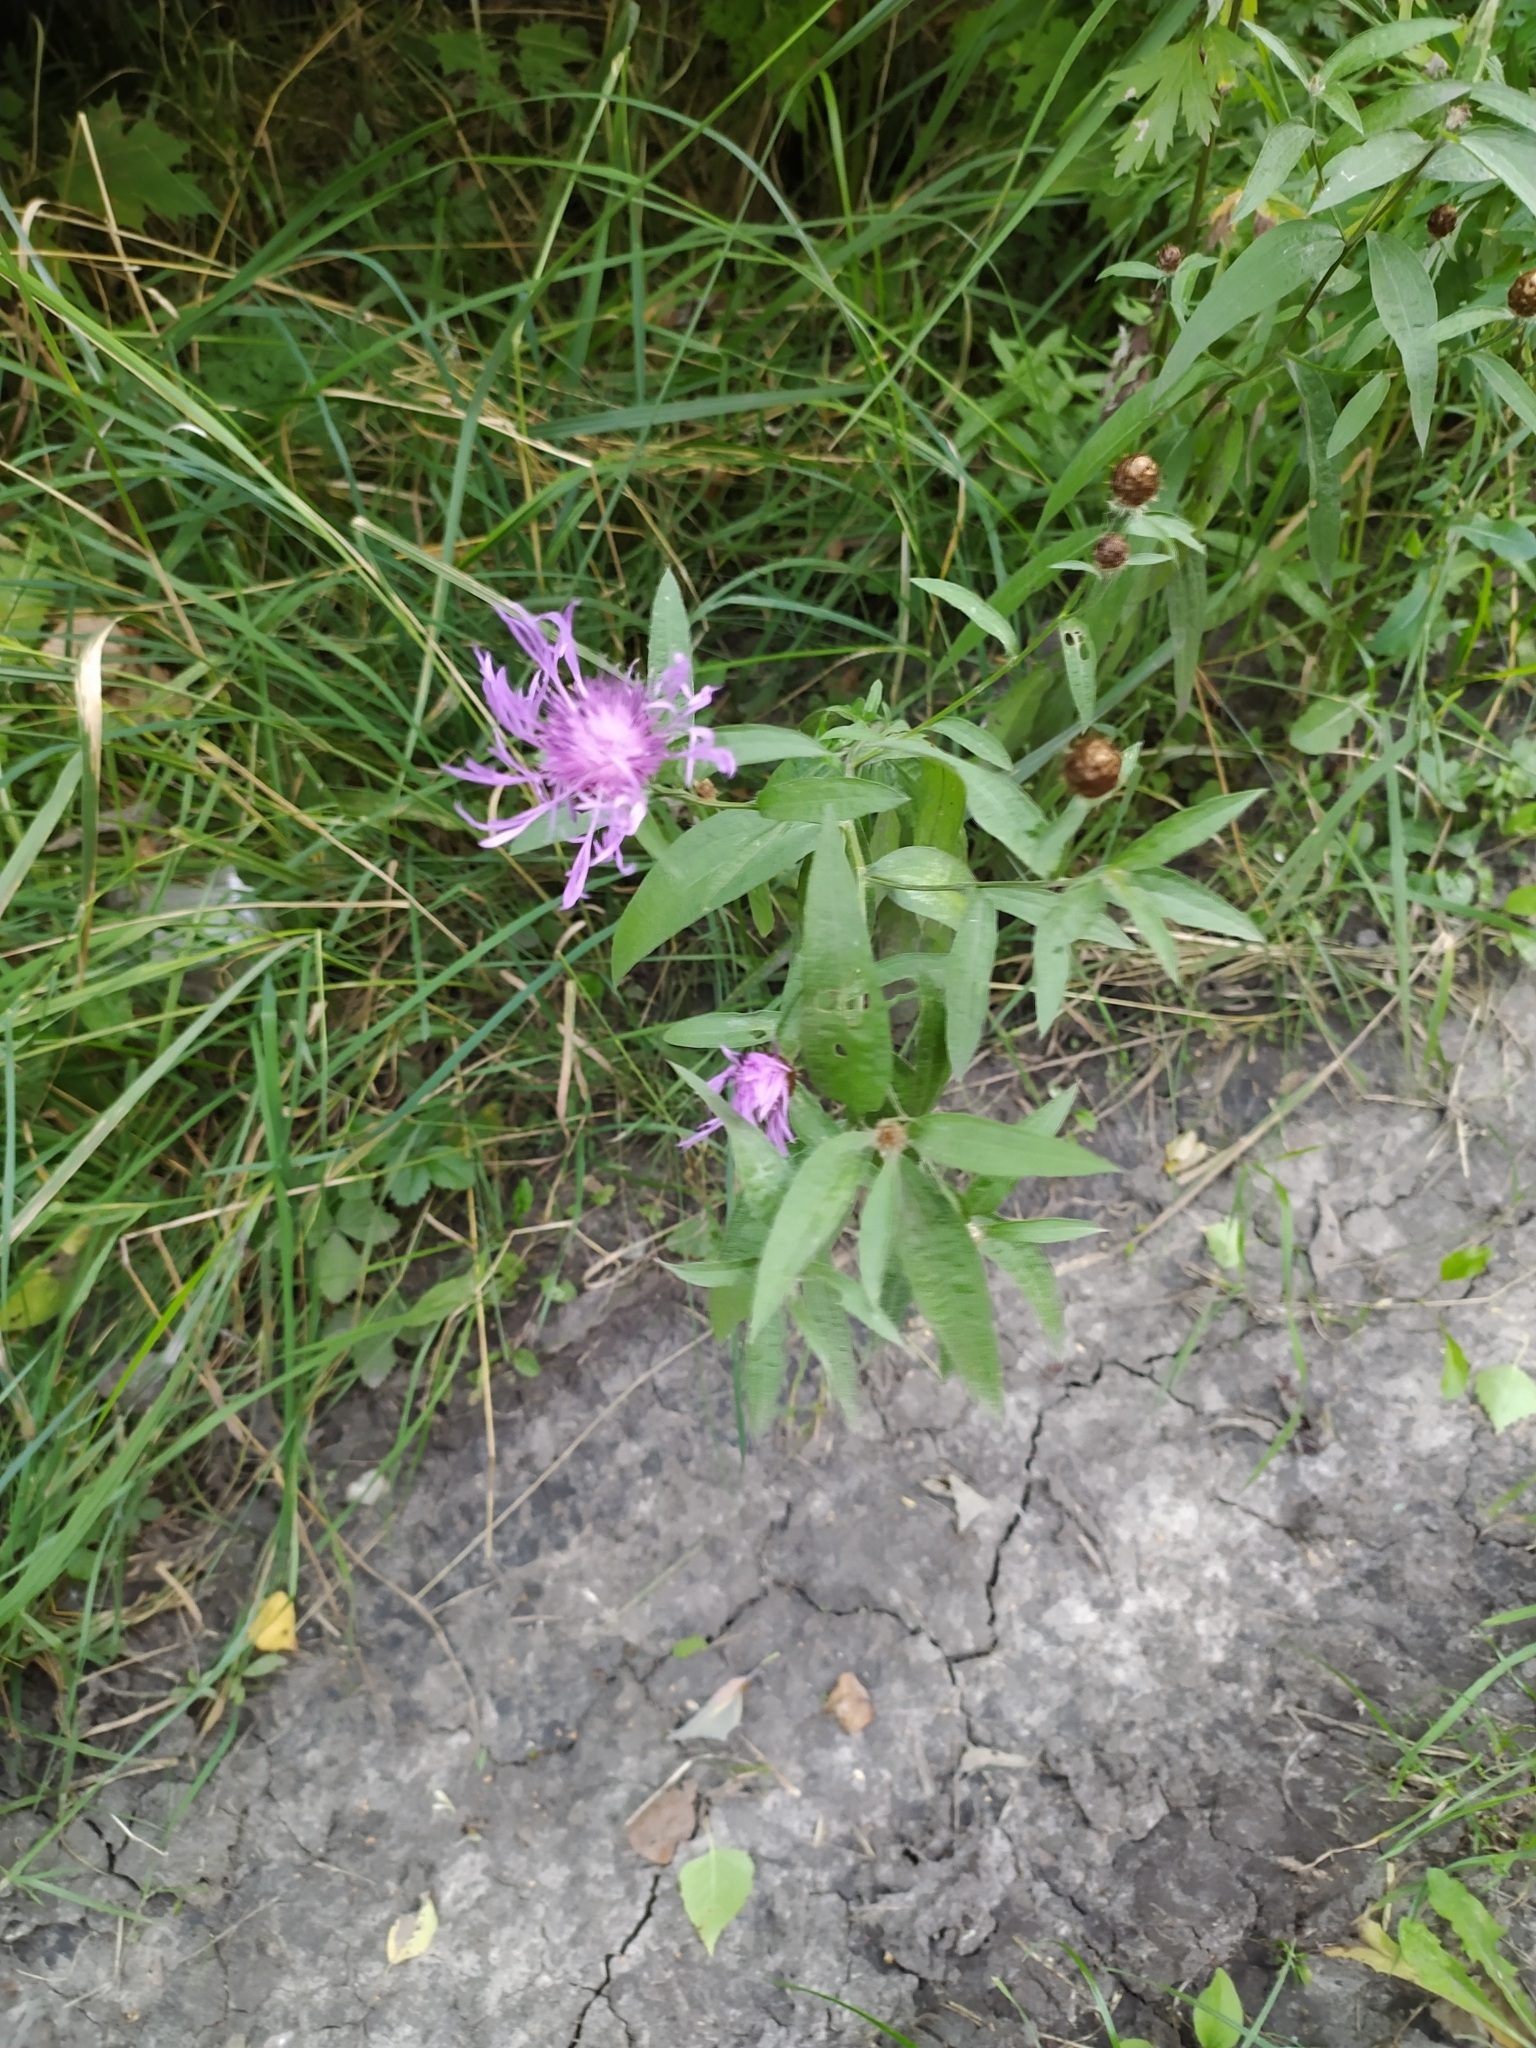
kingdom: Plantae
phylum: Tracheophyta
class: Magnoliopsida
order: Asterales
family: Asteraceae
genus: Centaurea
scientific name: Centaurea jacea
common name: Brown knapweed
